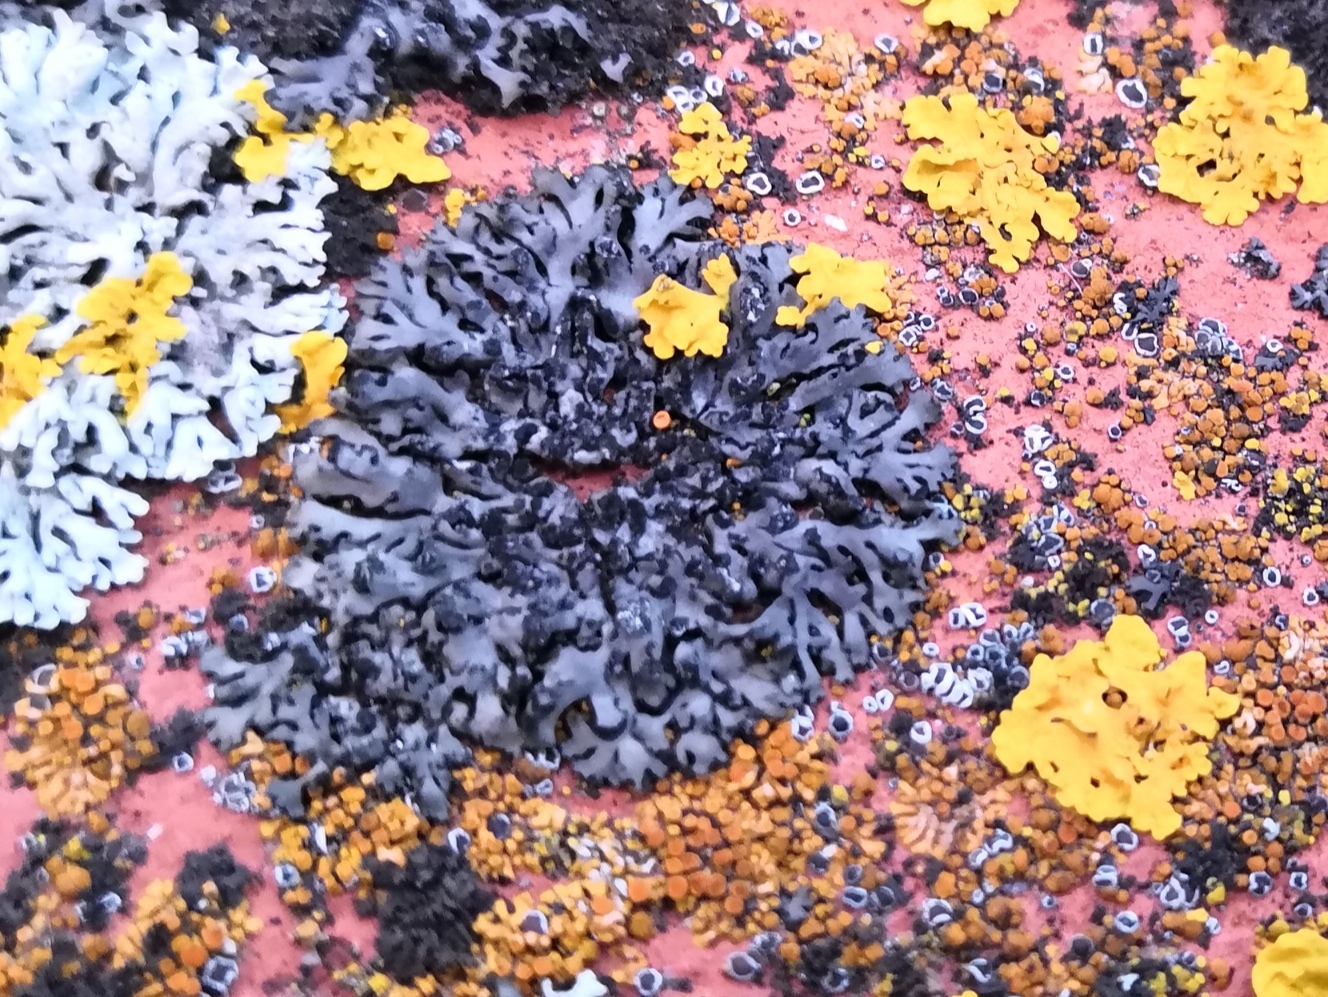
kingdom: Fungi
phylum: Ascomycota
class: Lecanoromycetes
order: Caliciales
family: Physciaceae
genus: Phaeophyscia
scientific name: Phaeophyscia orbicularis
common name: Mealy shadow lichen
